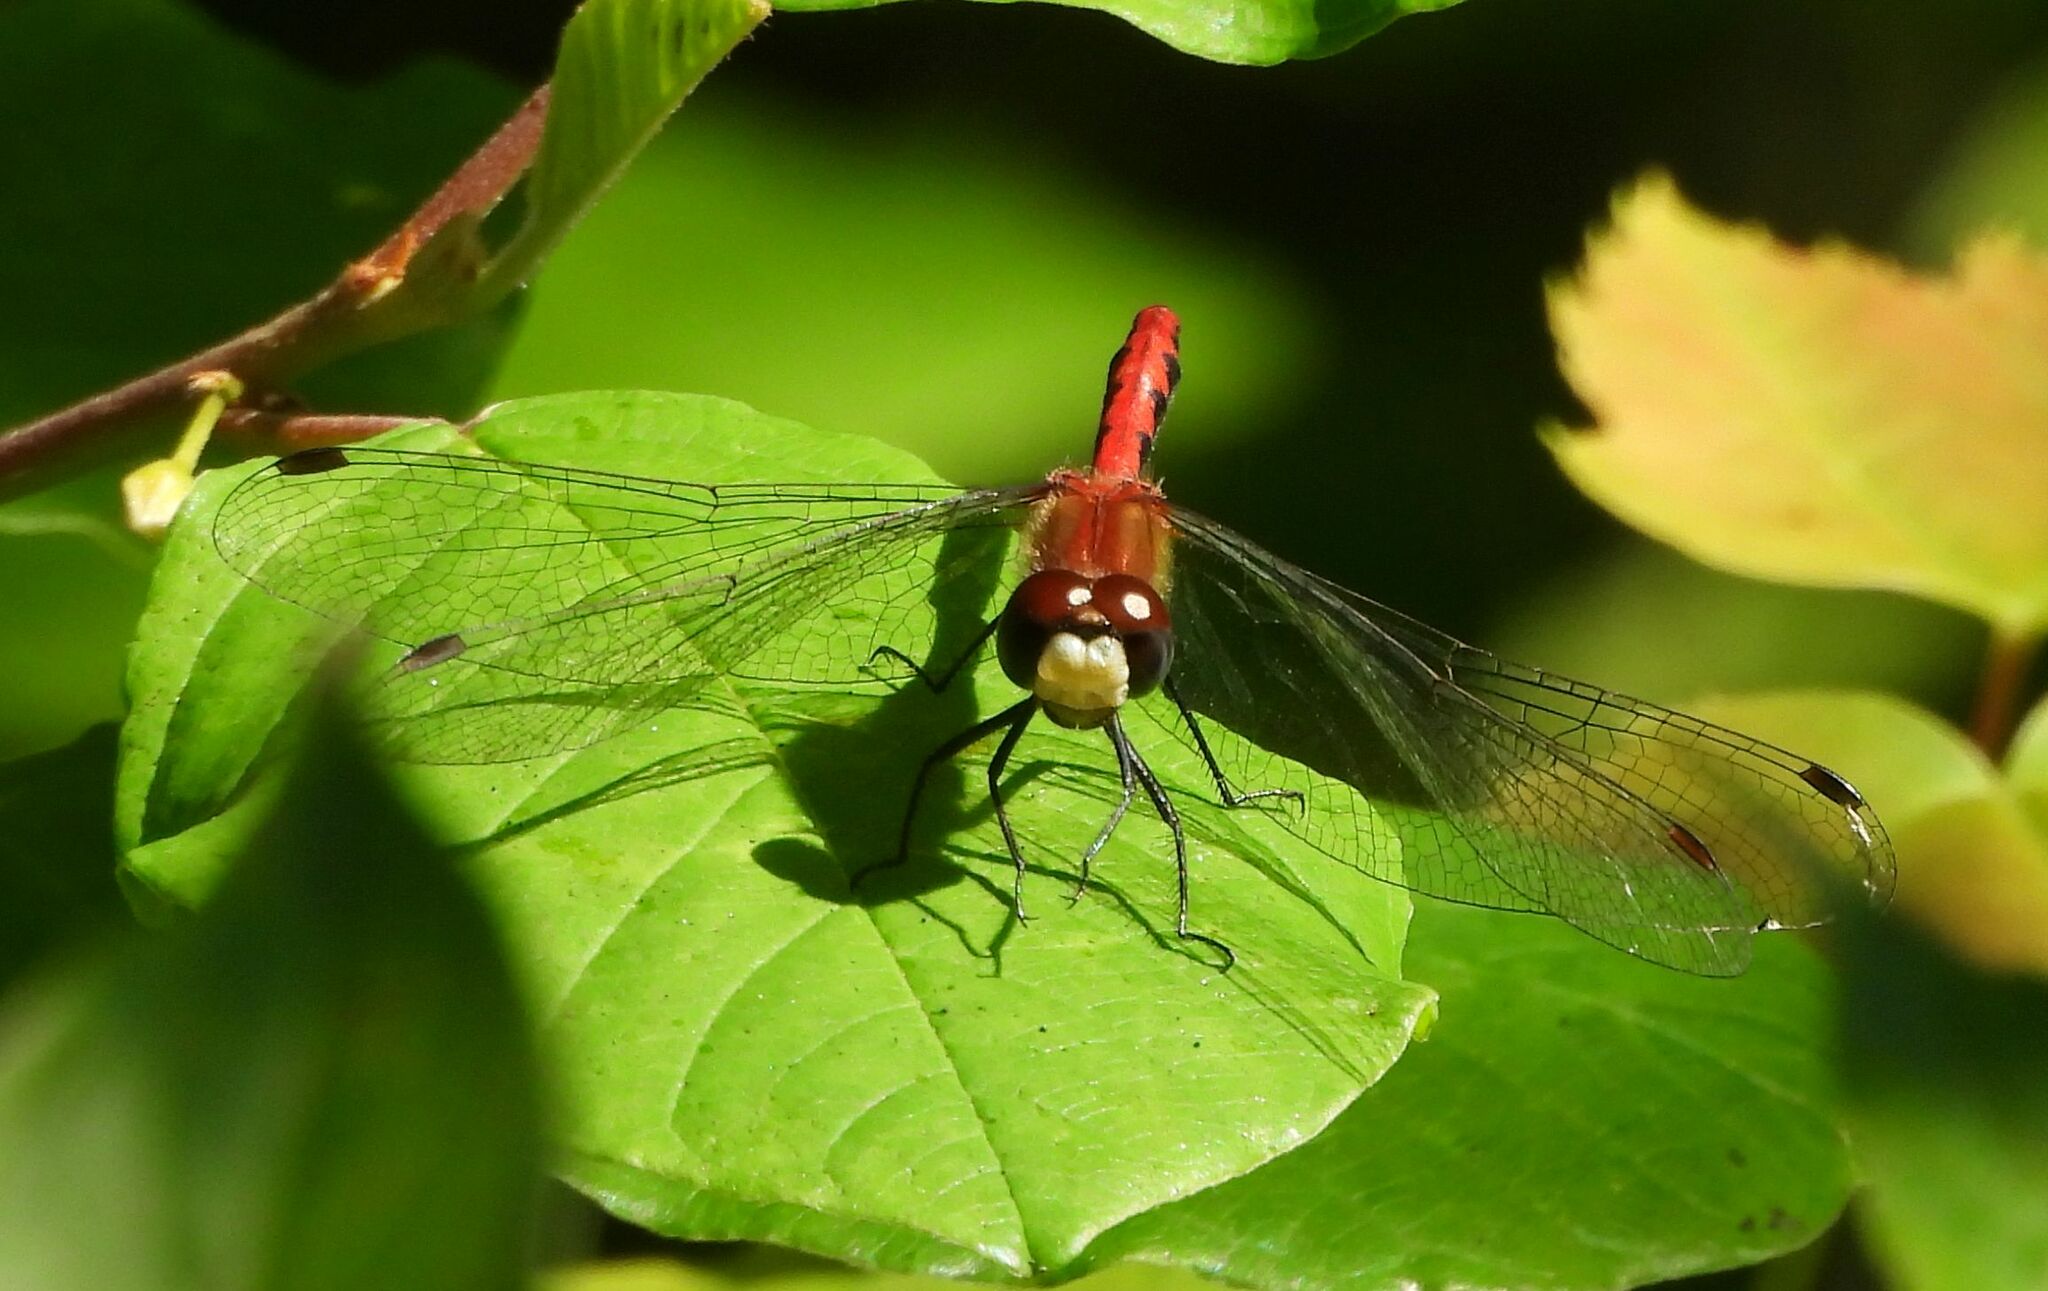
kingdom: Animalia
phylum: Arthropoda
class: Insecta
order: Odonata
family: Libellulidae
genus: Sympetrum
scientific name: Sympetrum obtrusum
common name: White-faced meadowhawk
